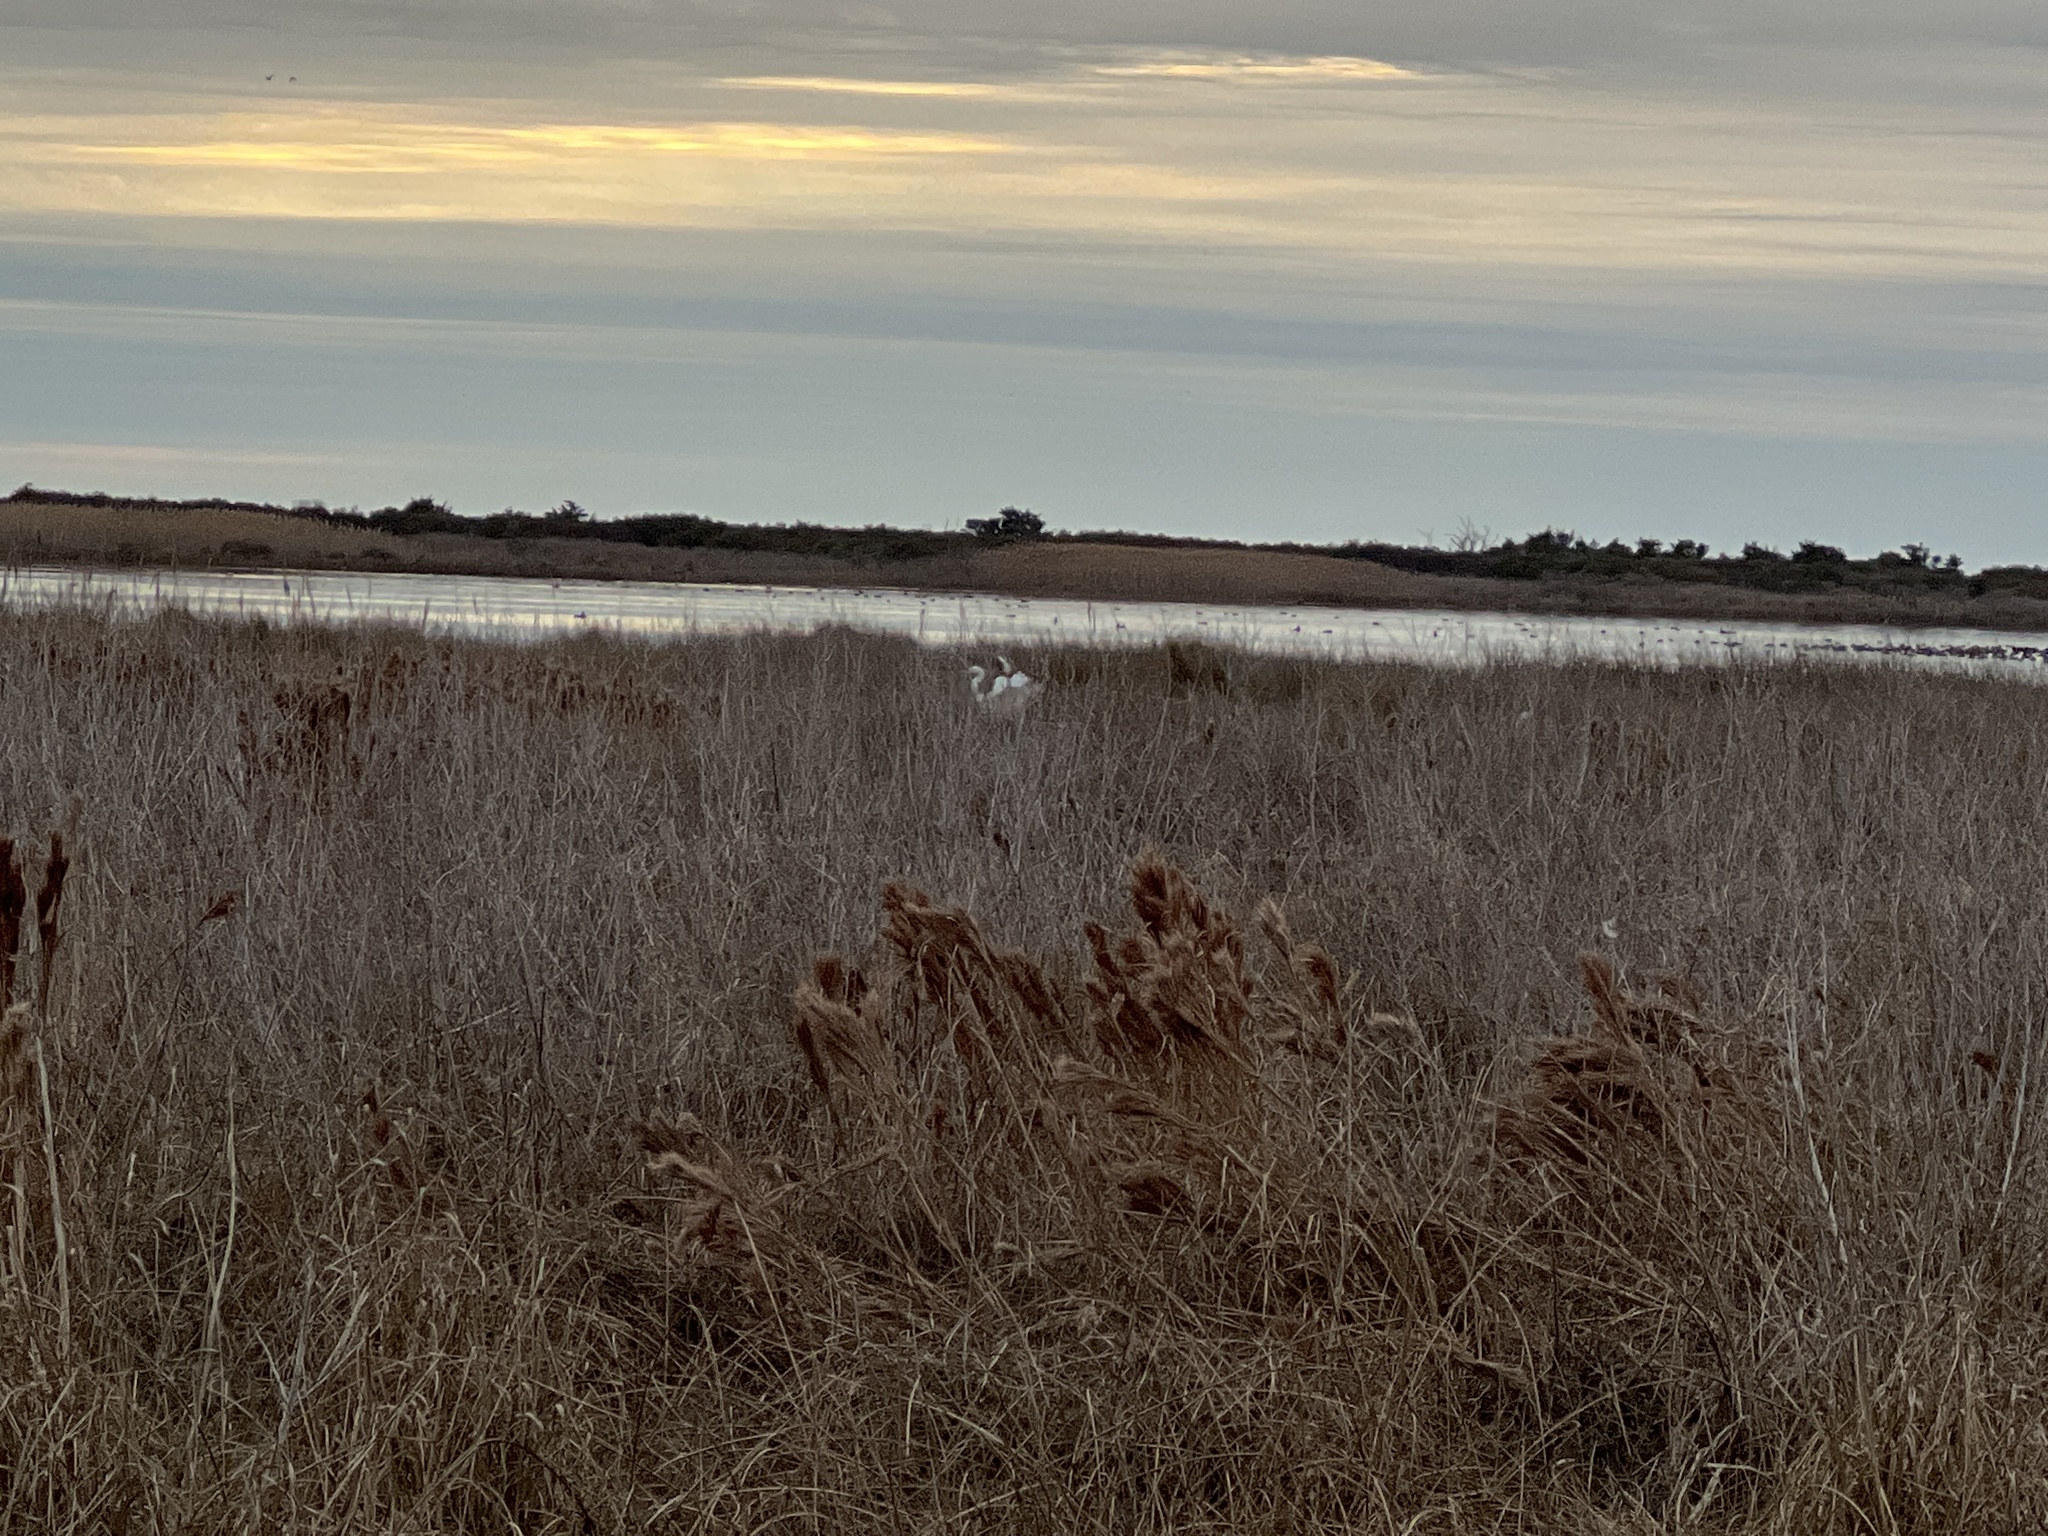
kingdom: Plantae
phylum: Tracheophyta
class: Liliopsida
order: Poales
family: Poaceae
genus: Andropogon
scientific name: Andropogon tenuispatheus
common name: Bushy bluestem
